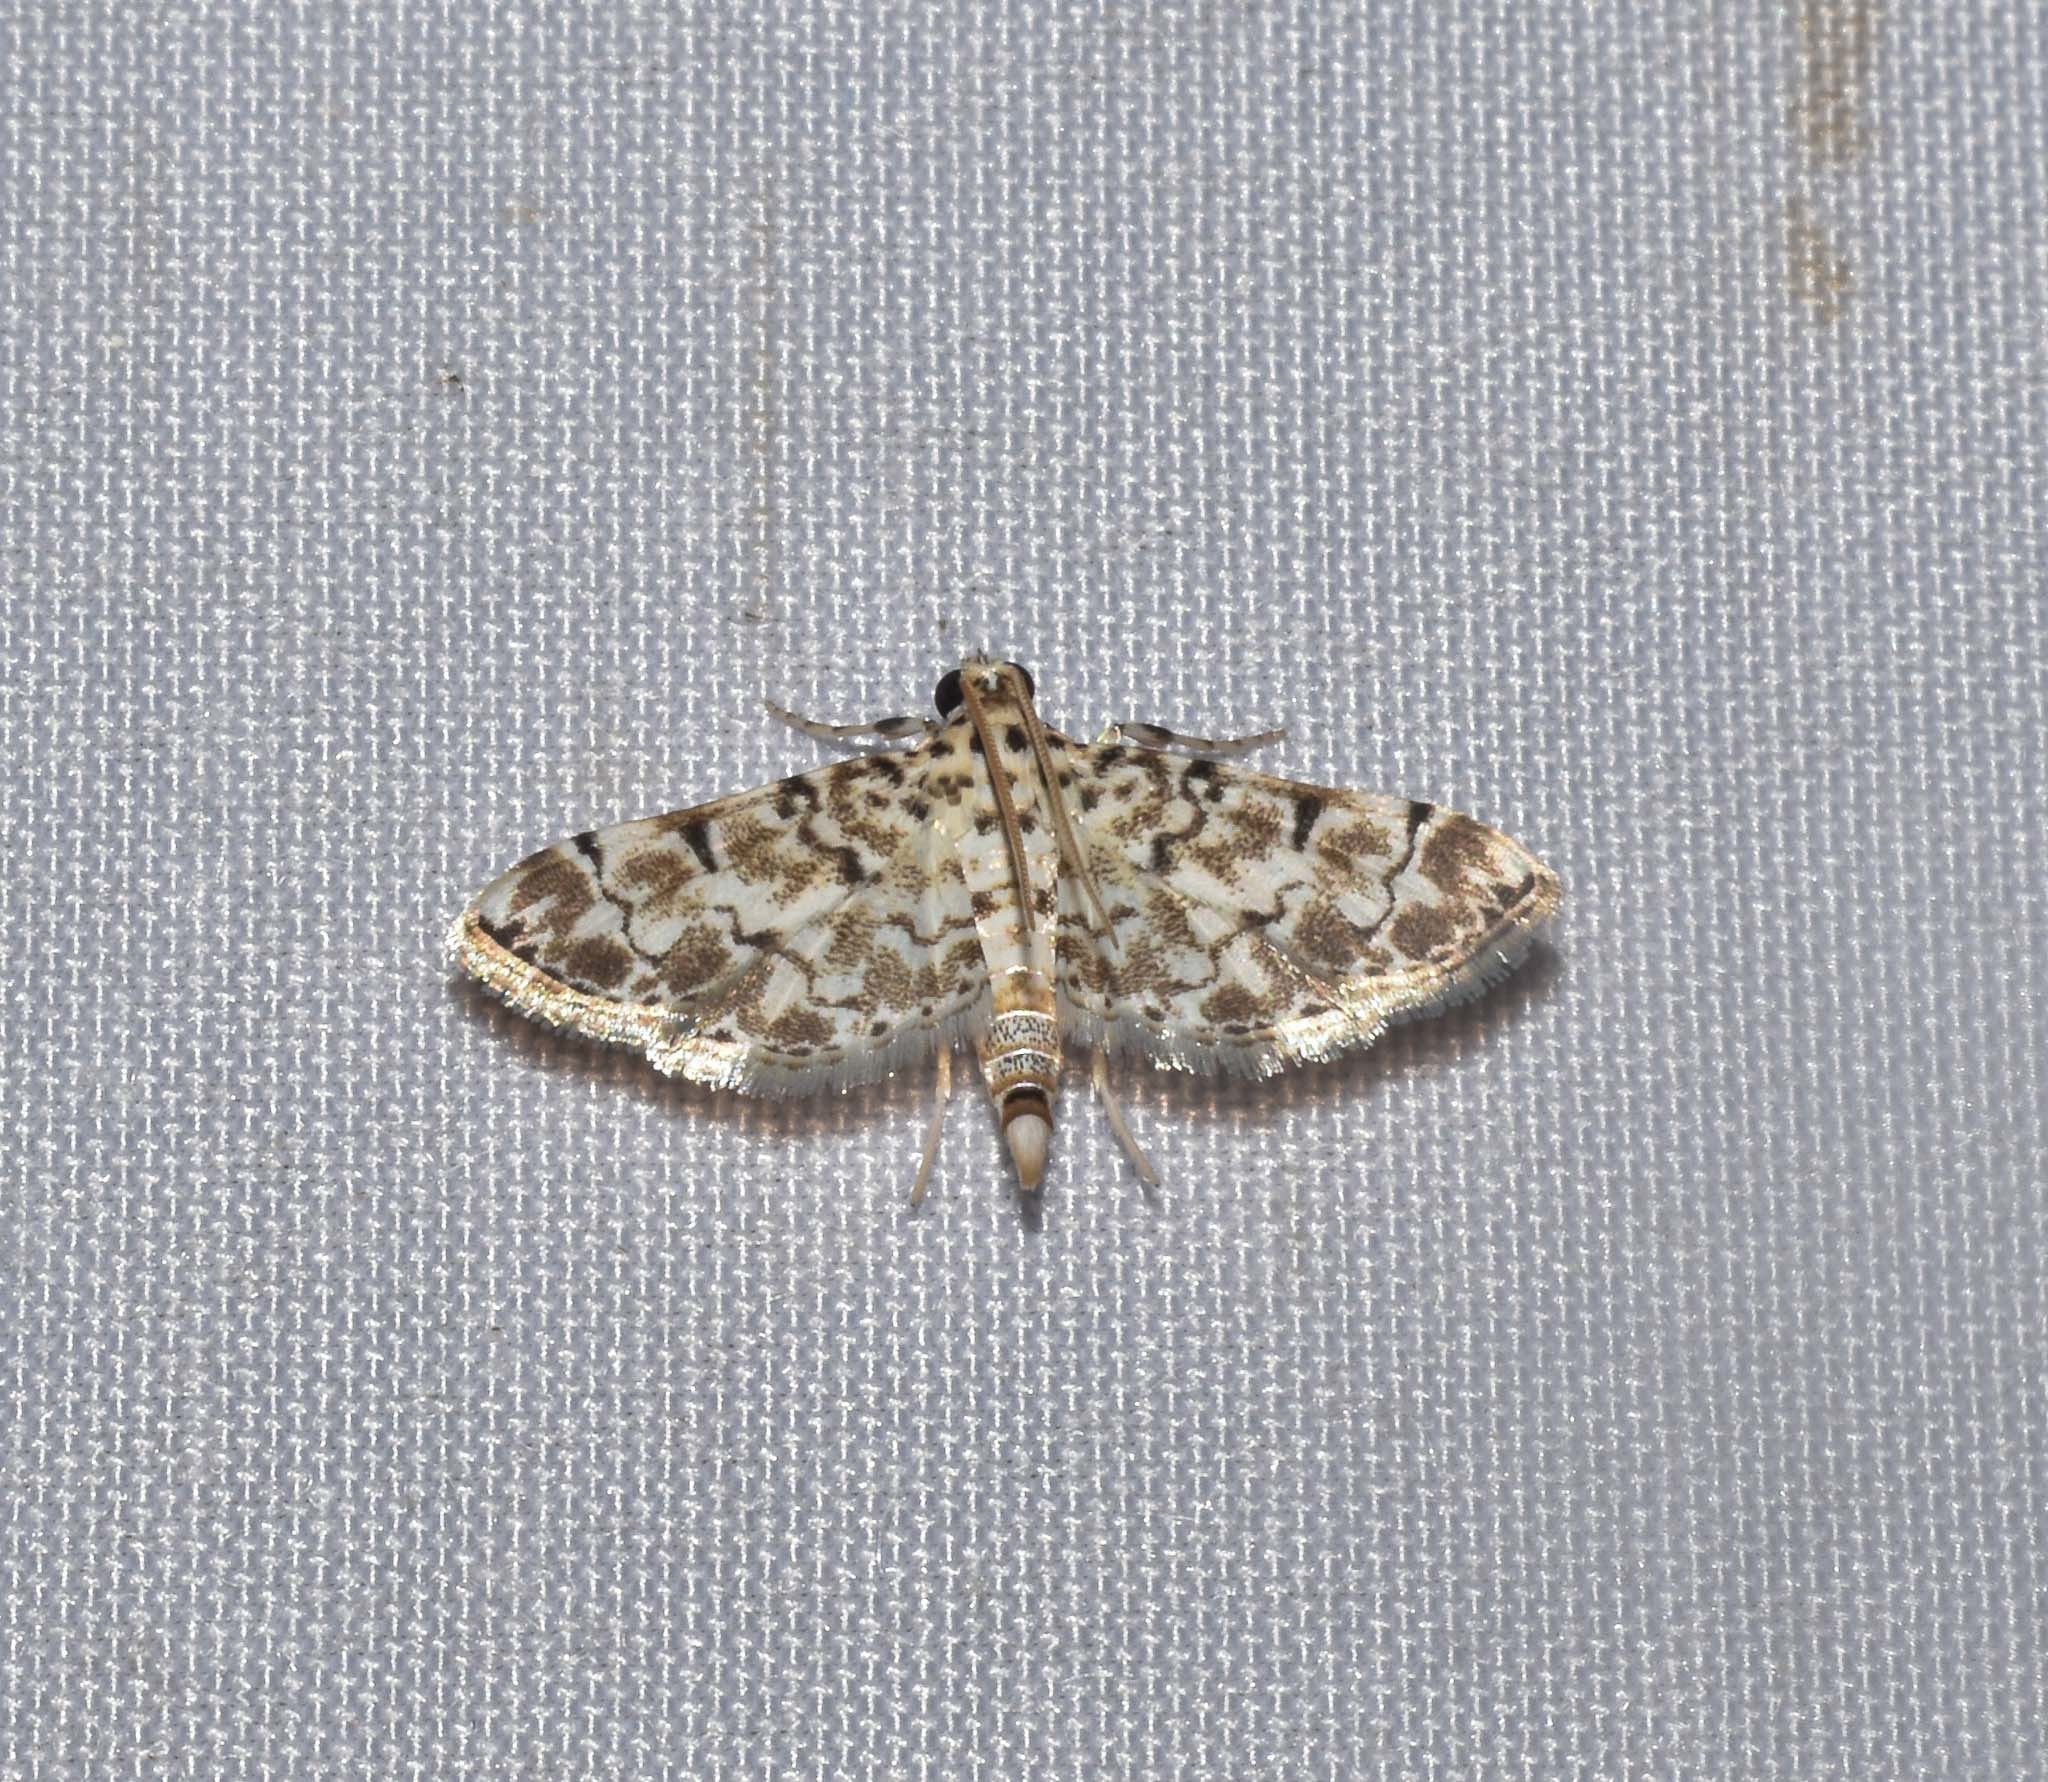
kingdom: Animalia
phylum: Arthropoda
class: Insecta
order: Lepidoptera
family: Crambidae
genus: Metoeca
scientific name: Metoeca foedalis
